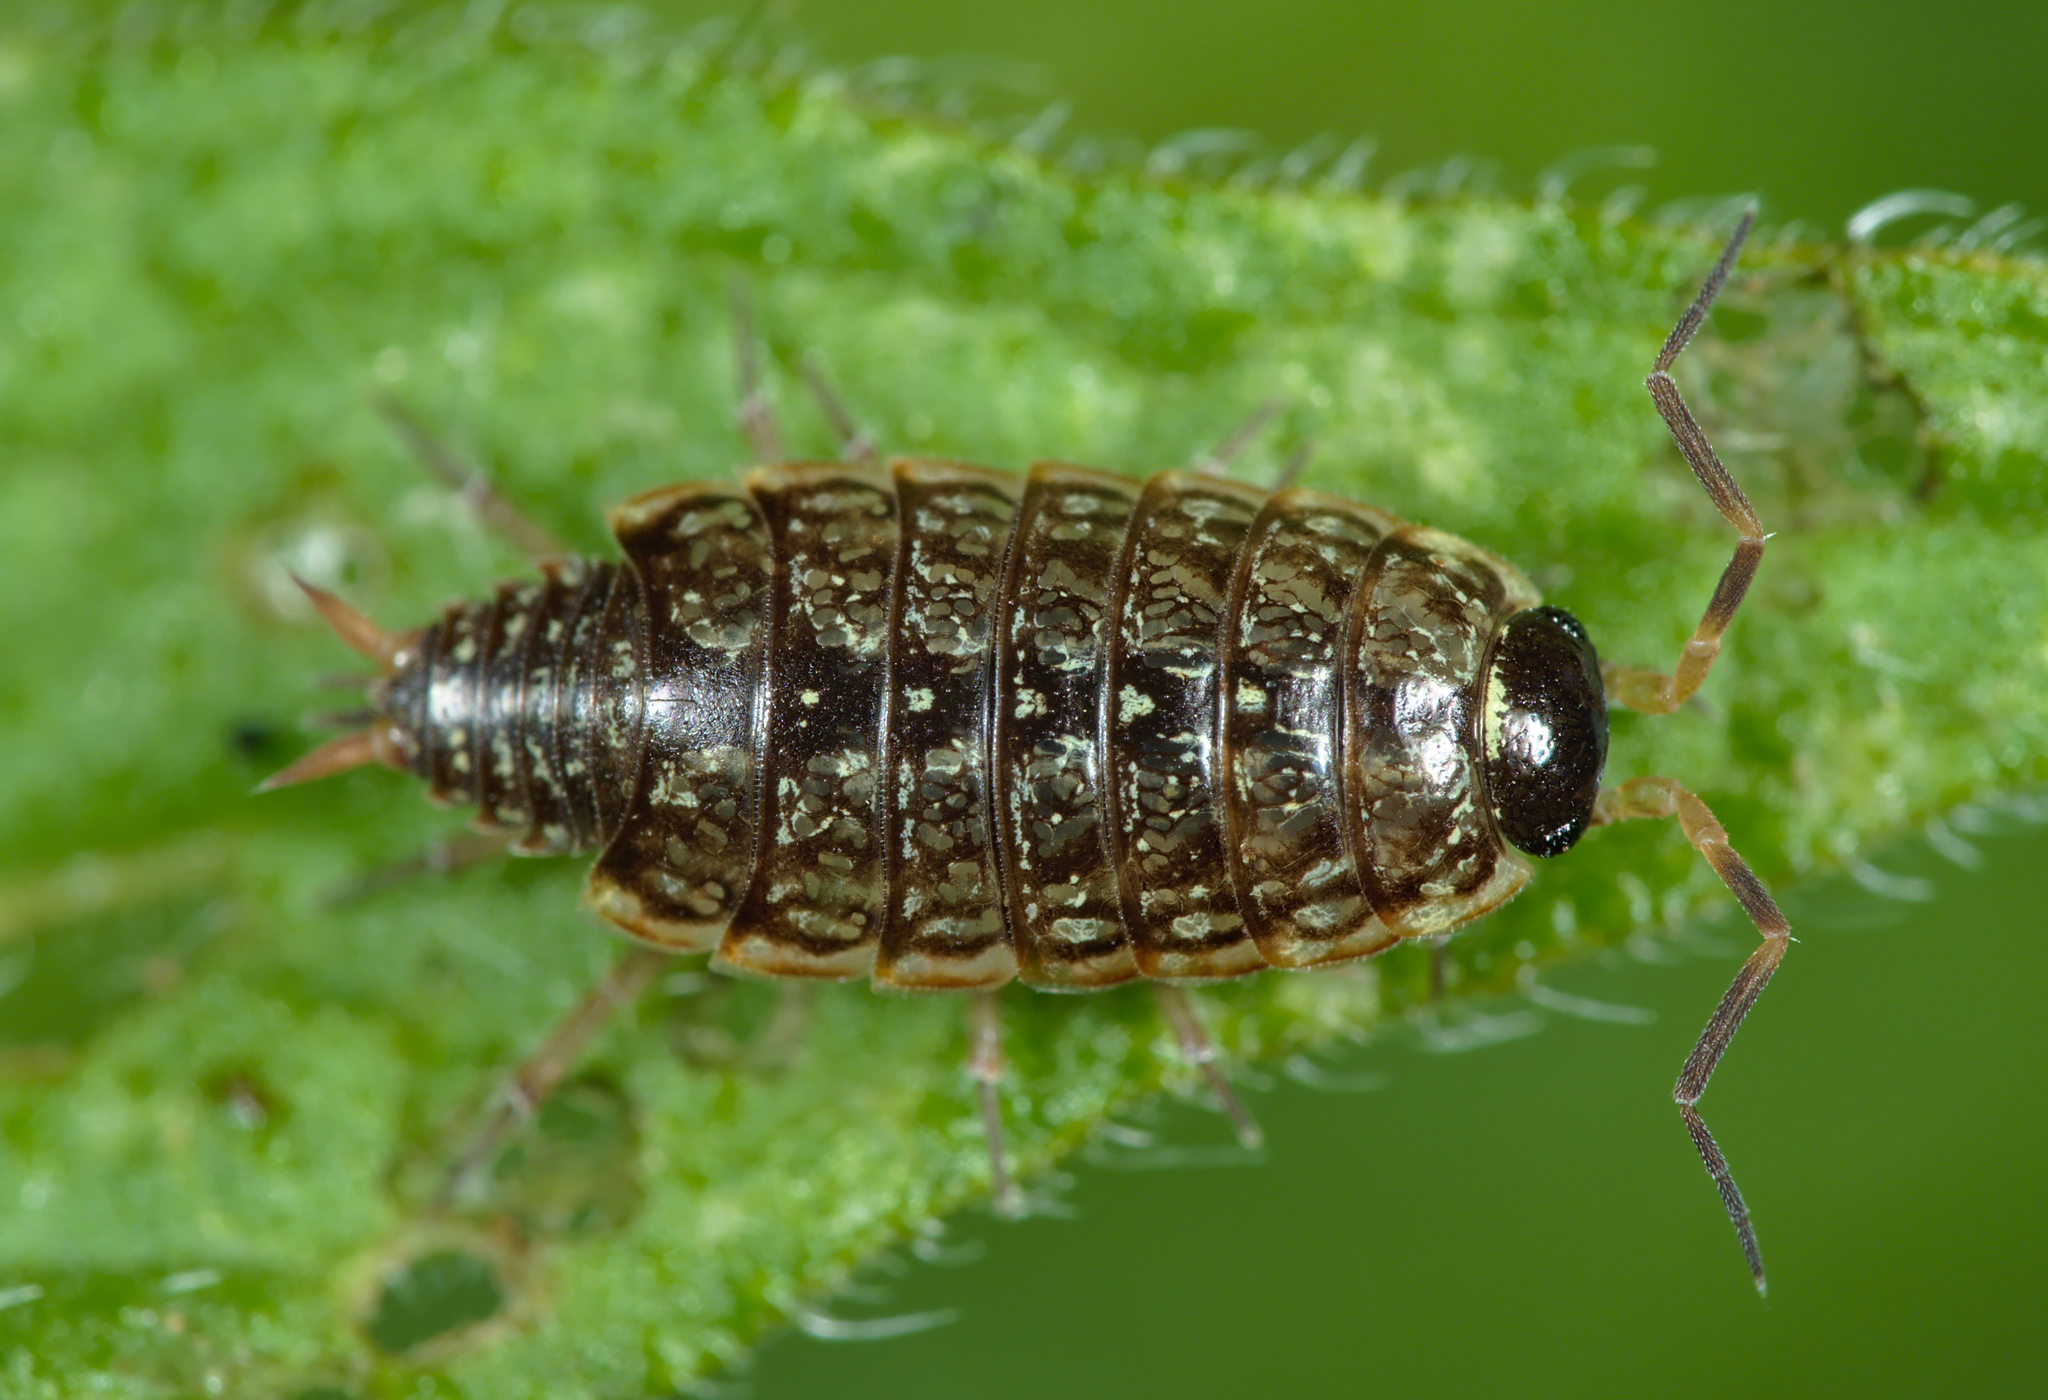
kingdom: Animalia
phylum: Arthropoda
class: Malacostraca
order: Isopoda
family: Philosciidae
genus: Philoscia
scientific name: Philoscia muscorum
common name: Common striped woodlouse
